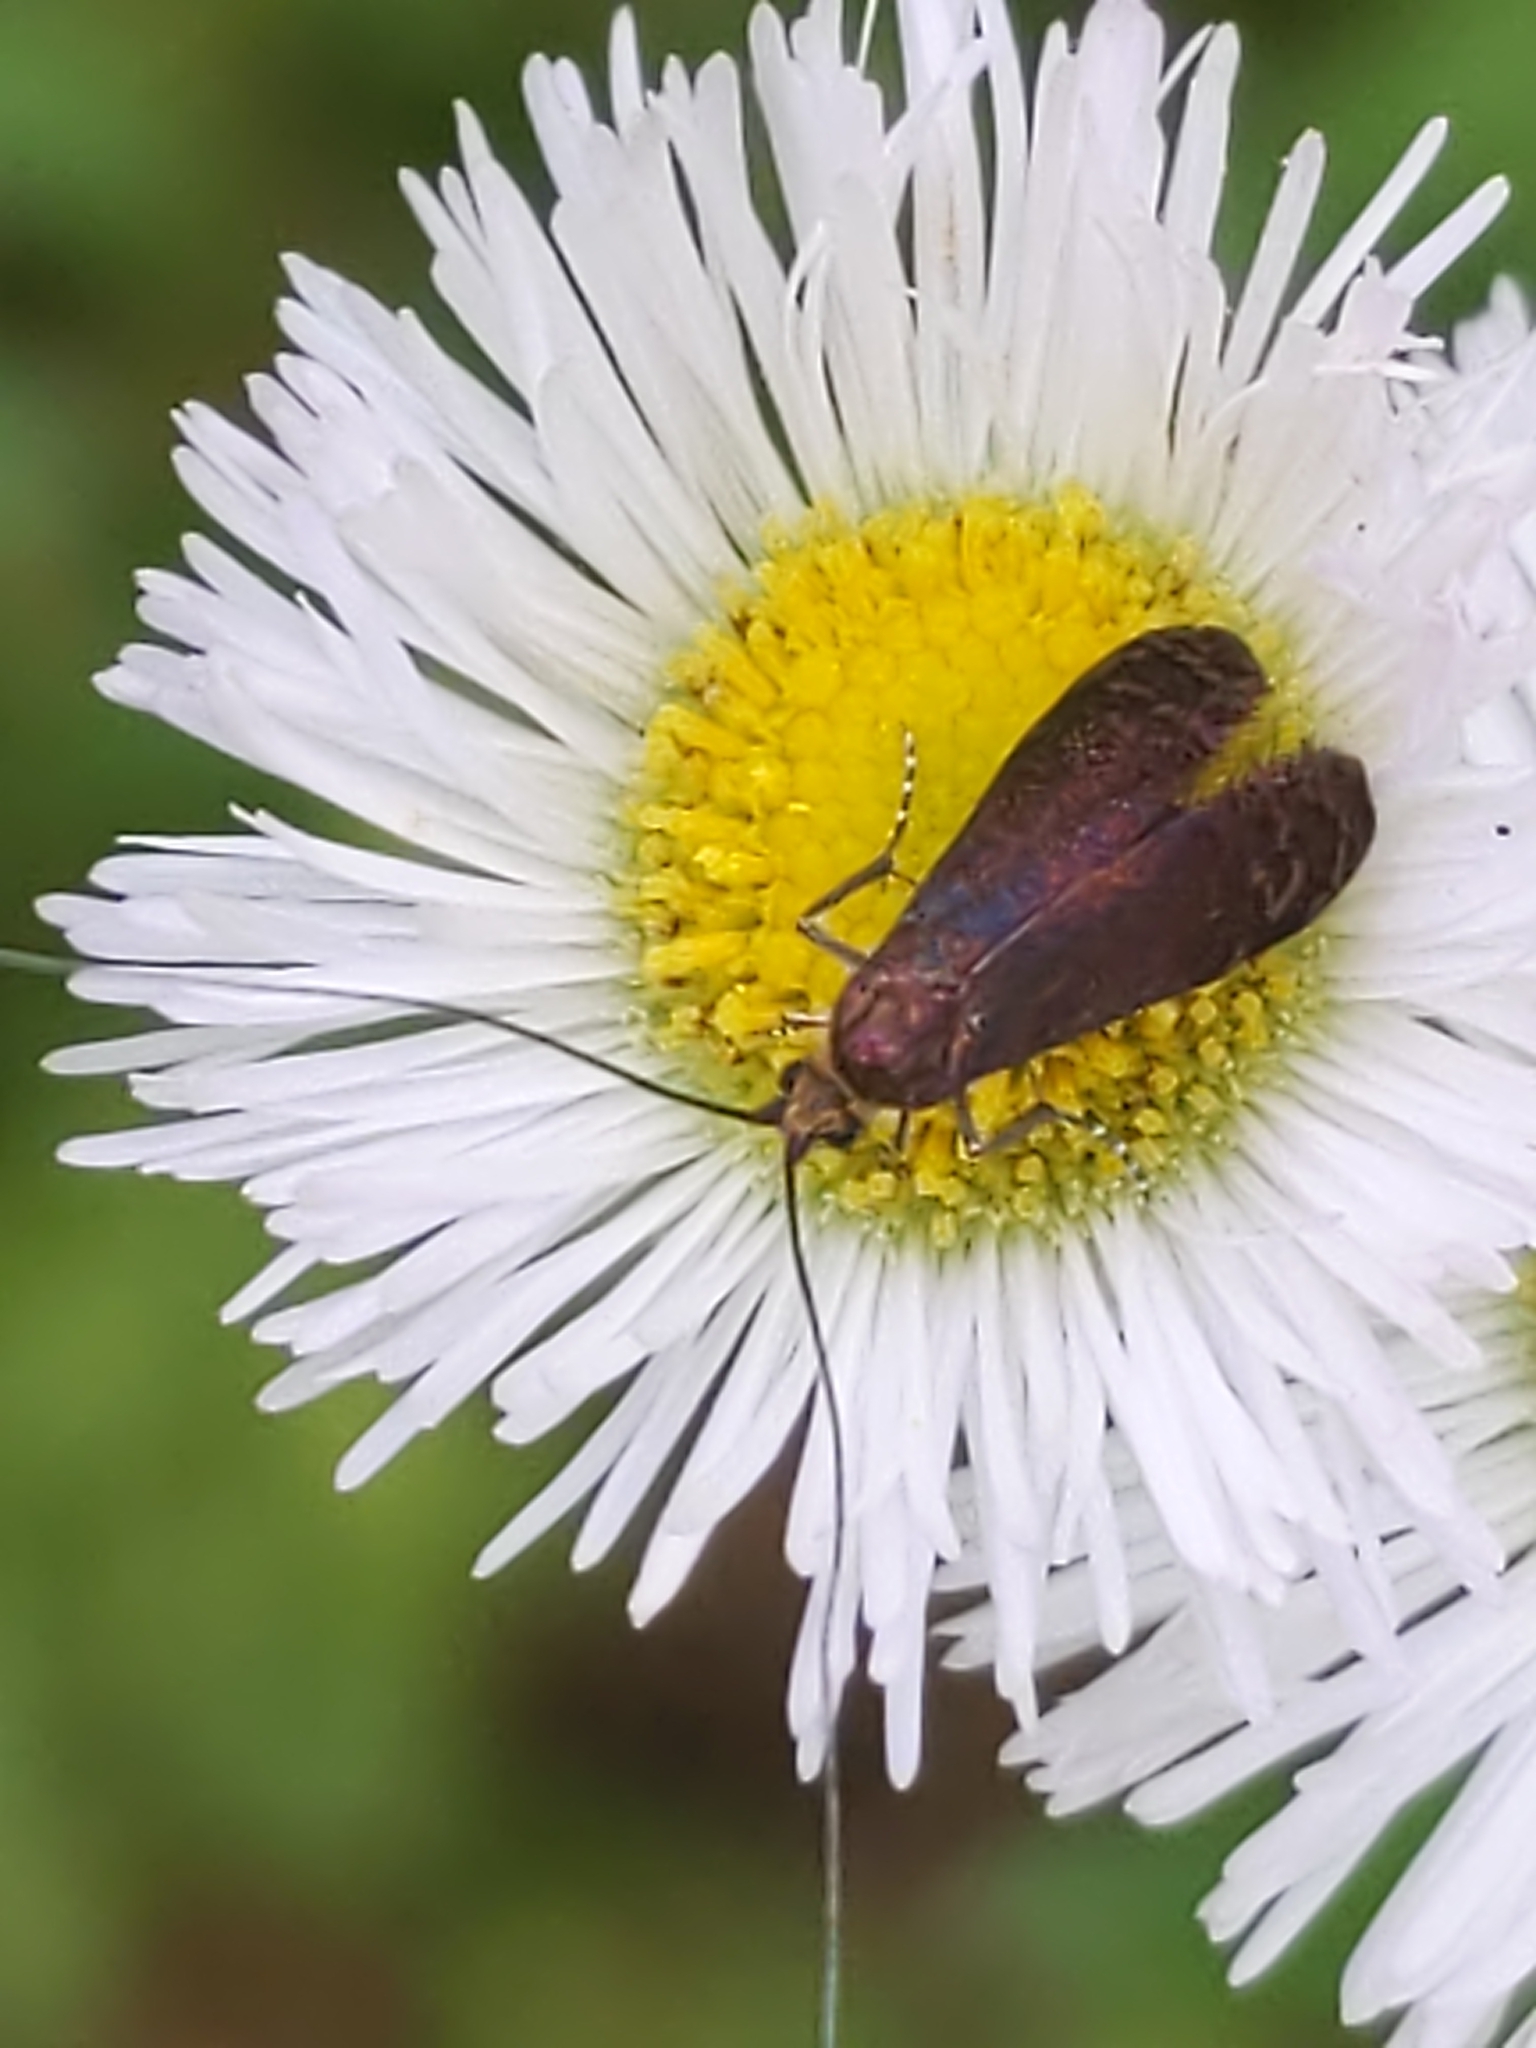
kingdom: Animalia
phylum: Arthropoda
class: Insecta
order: Lepidoptera
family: Adelidae
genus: Adela
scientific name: Adela caeruleella
